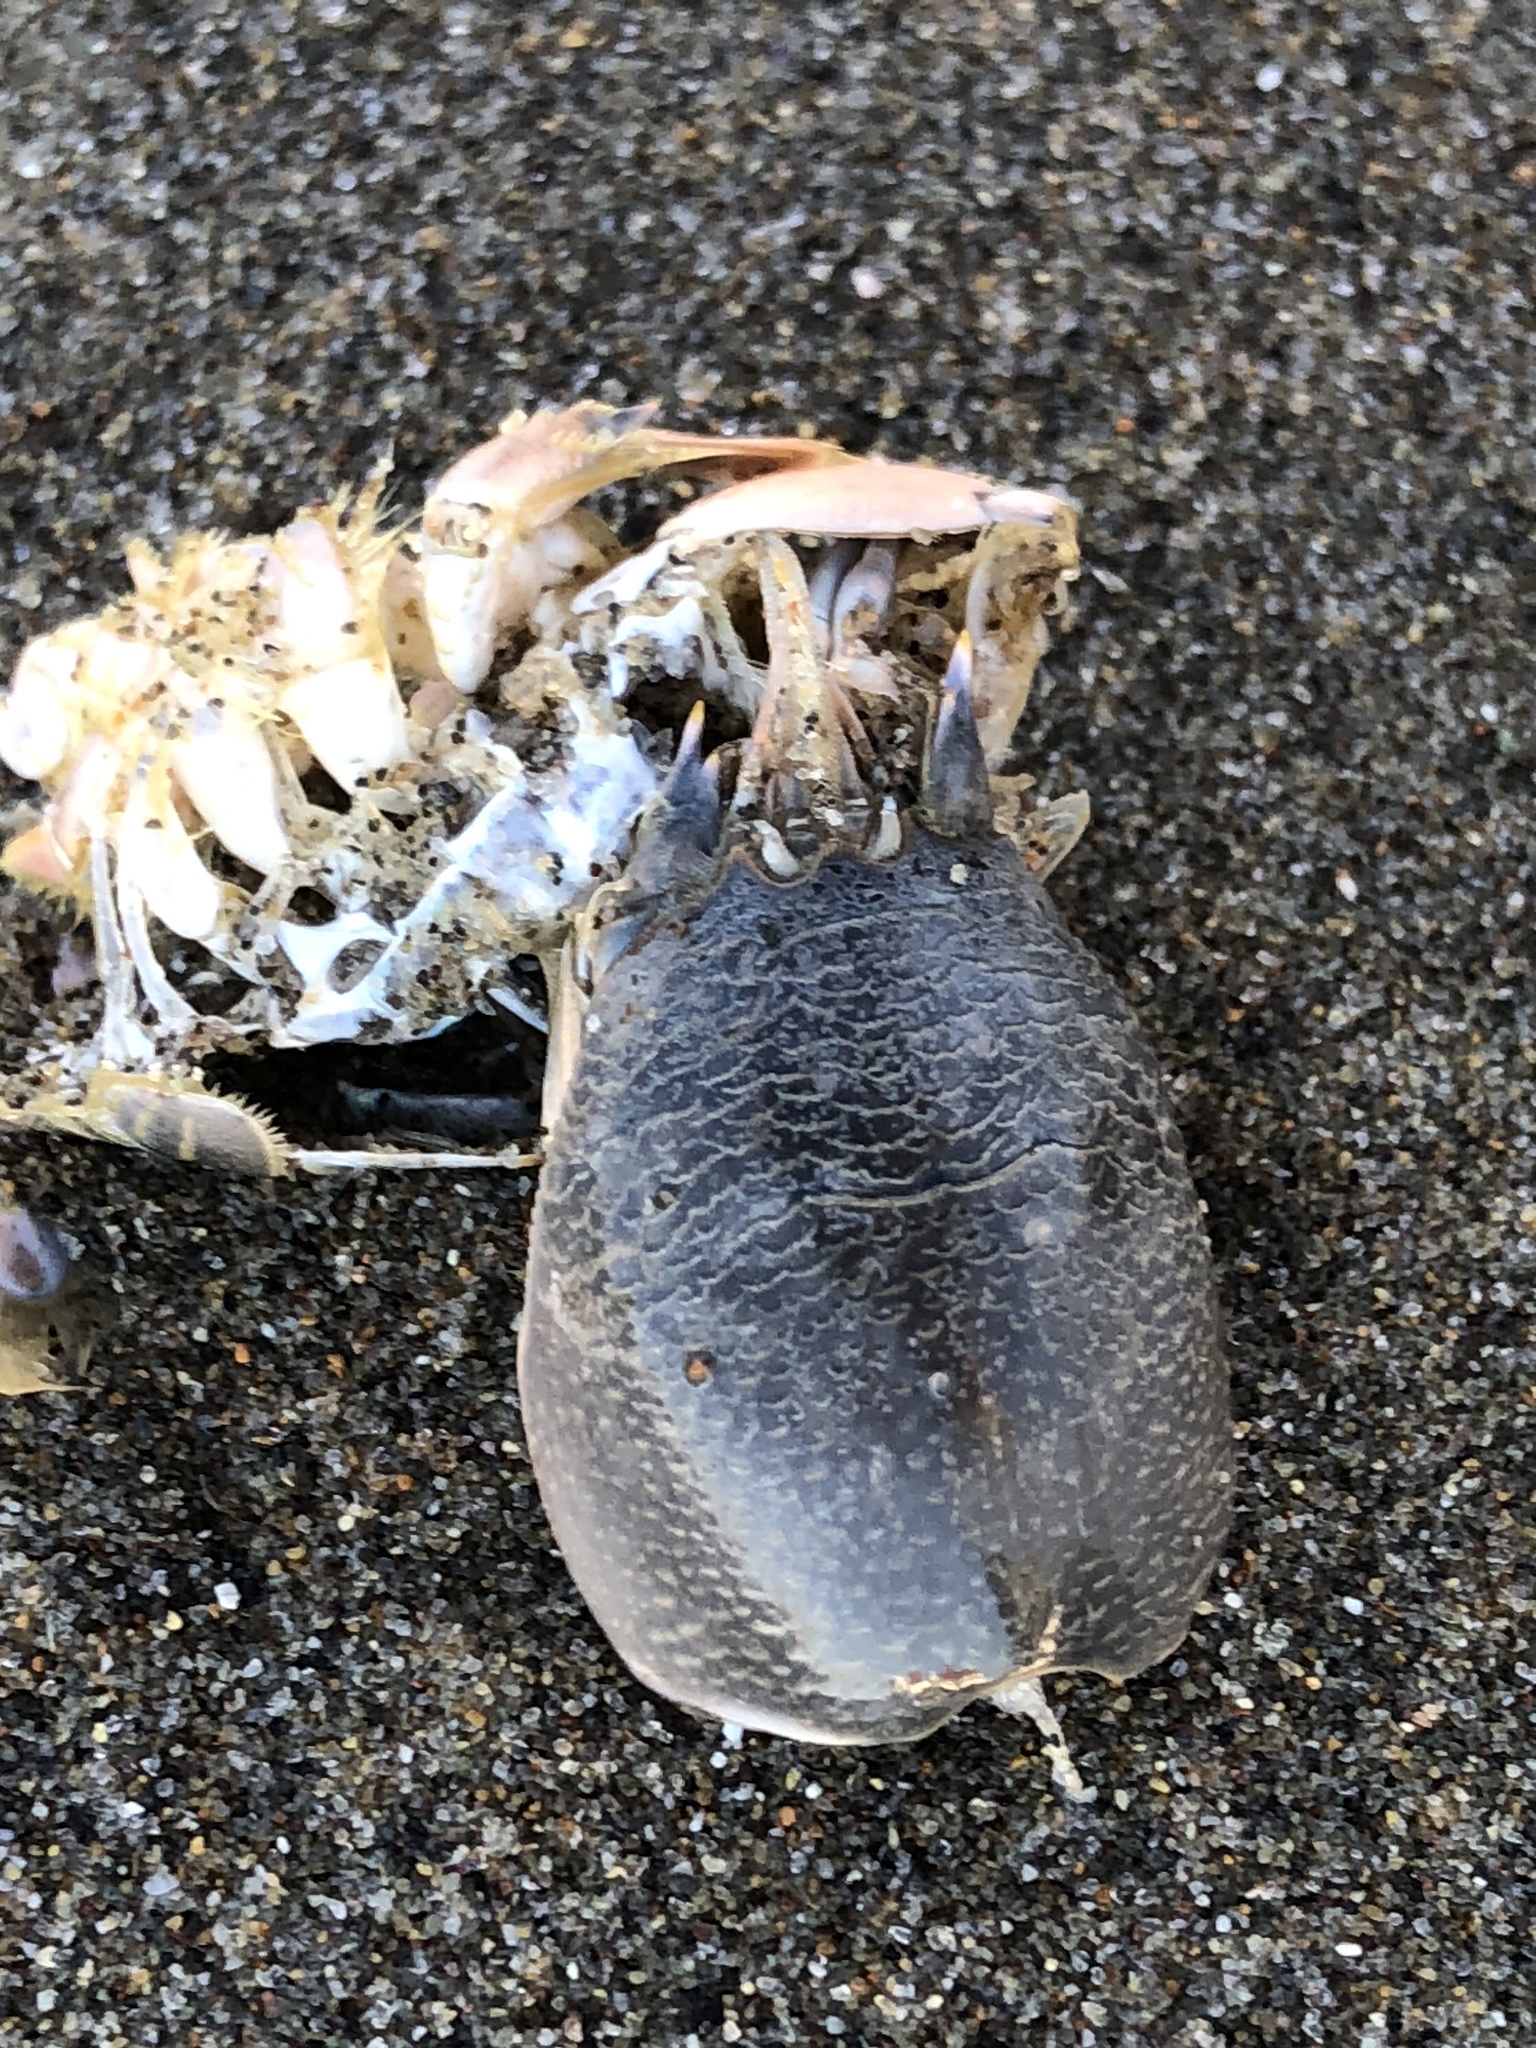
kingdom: Animalia
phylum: Arthropoda
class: Malacostraca
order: Decapoda
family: Hippidae
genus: Emerita
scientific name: Emerita analoga
